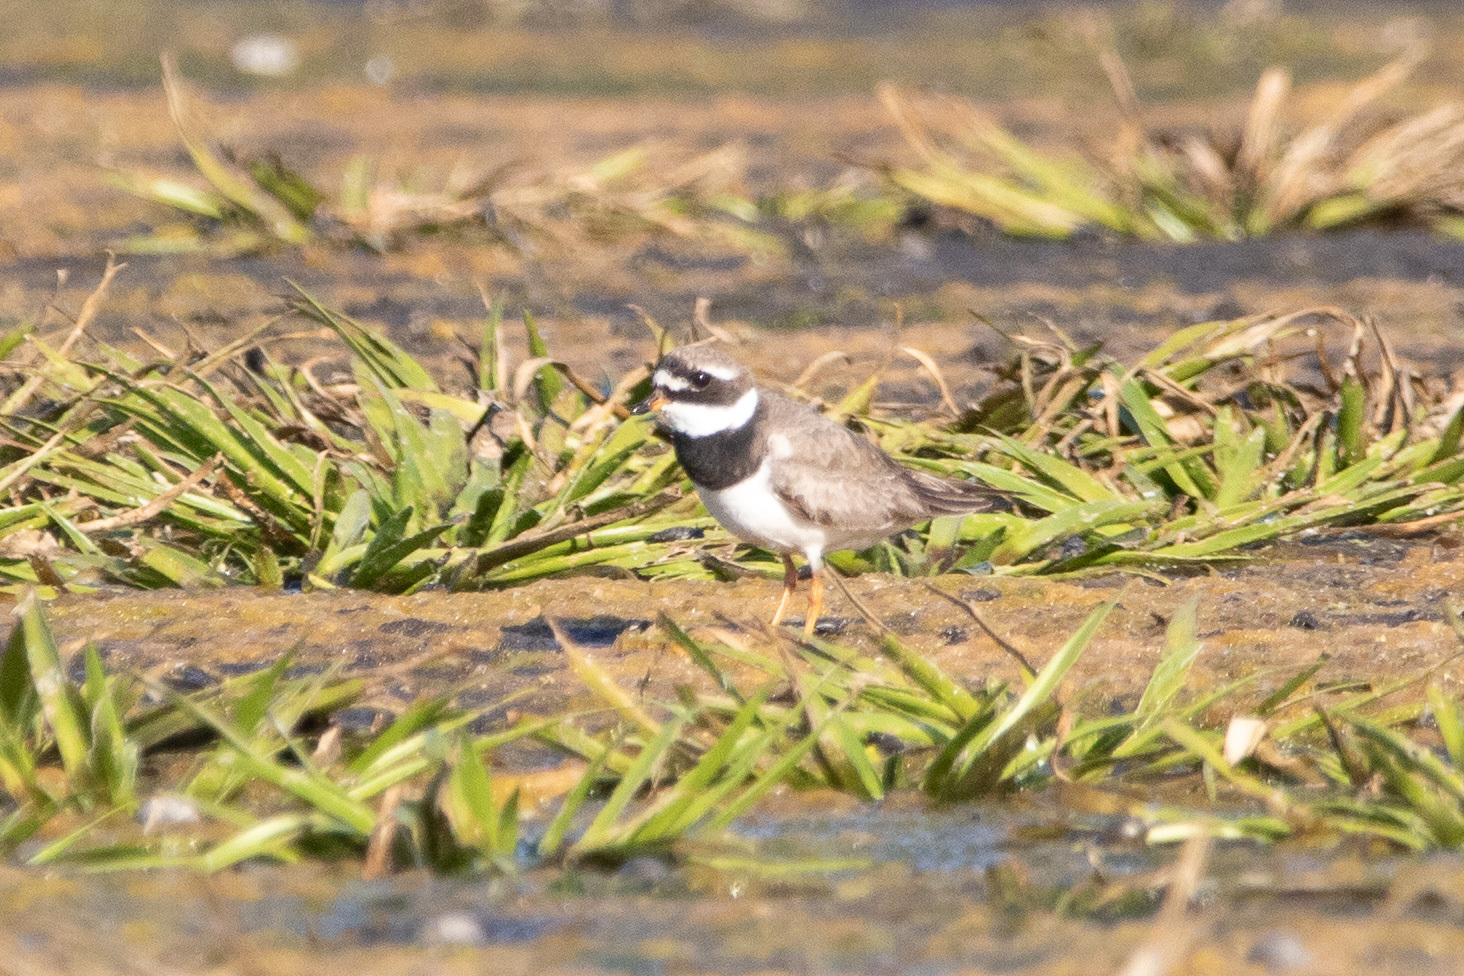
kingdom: Animalia
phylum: Chordata
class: Aves
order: Charadriiformes
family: Charadriidae
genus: Charadrius
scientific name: Charadrius hiaticula
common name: Common ringed plover
